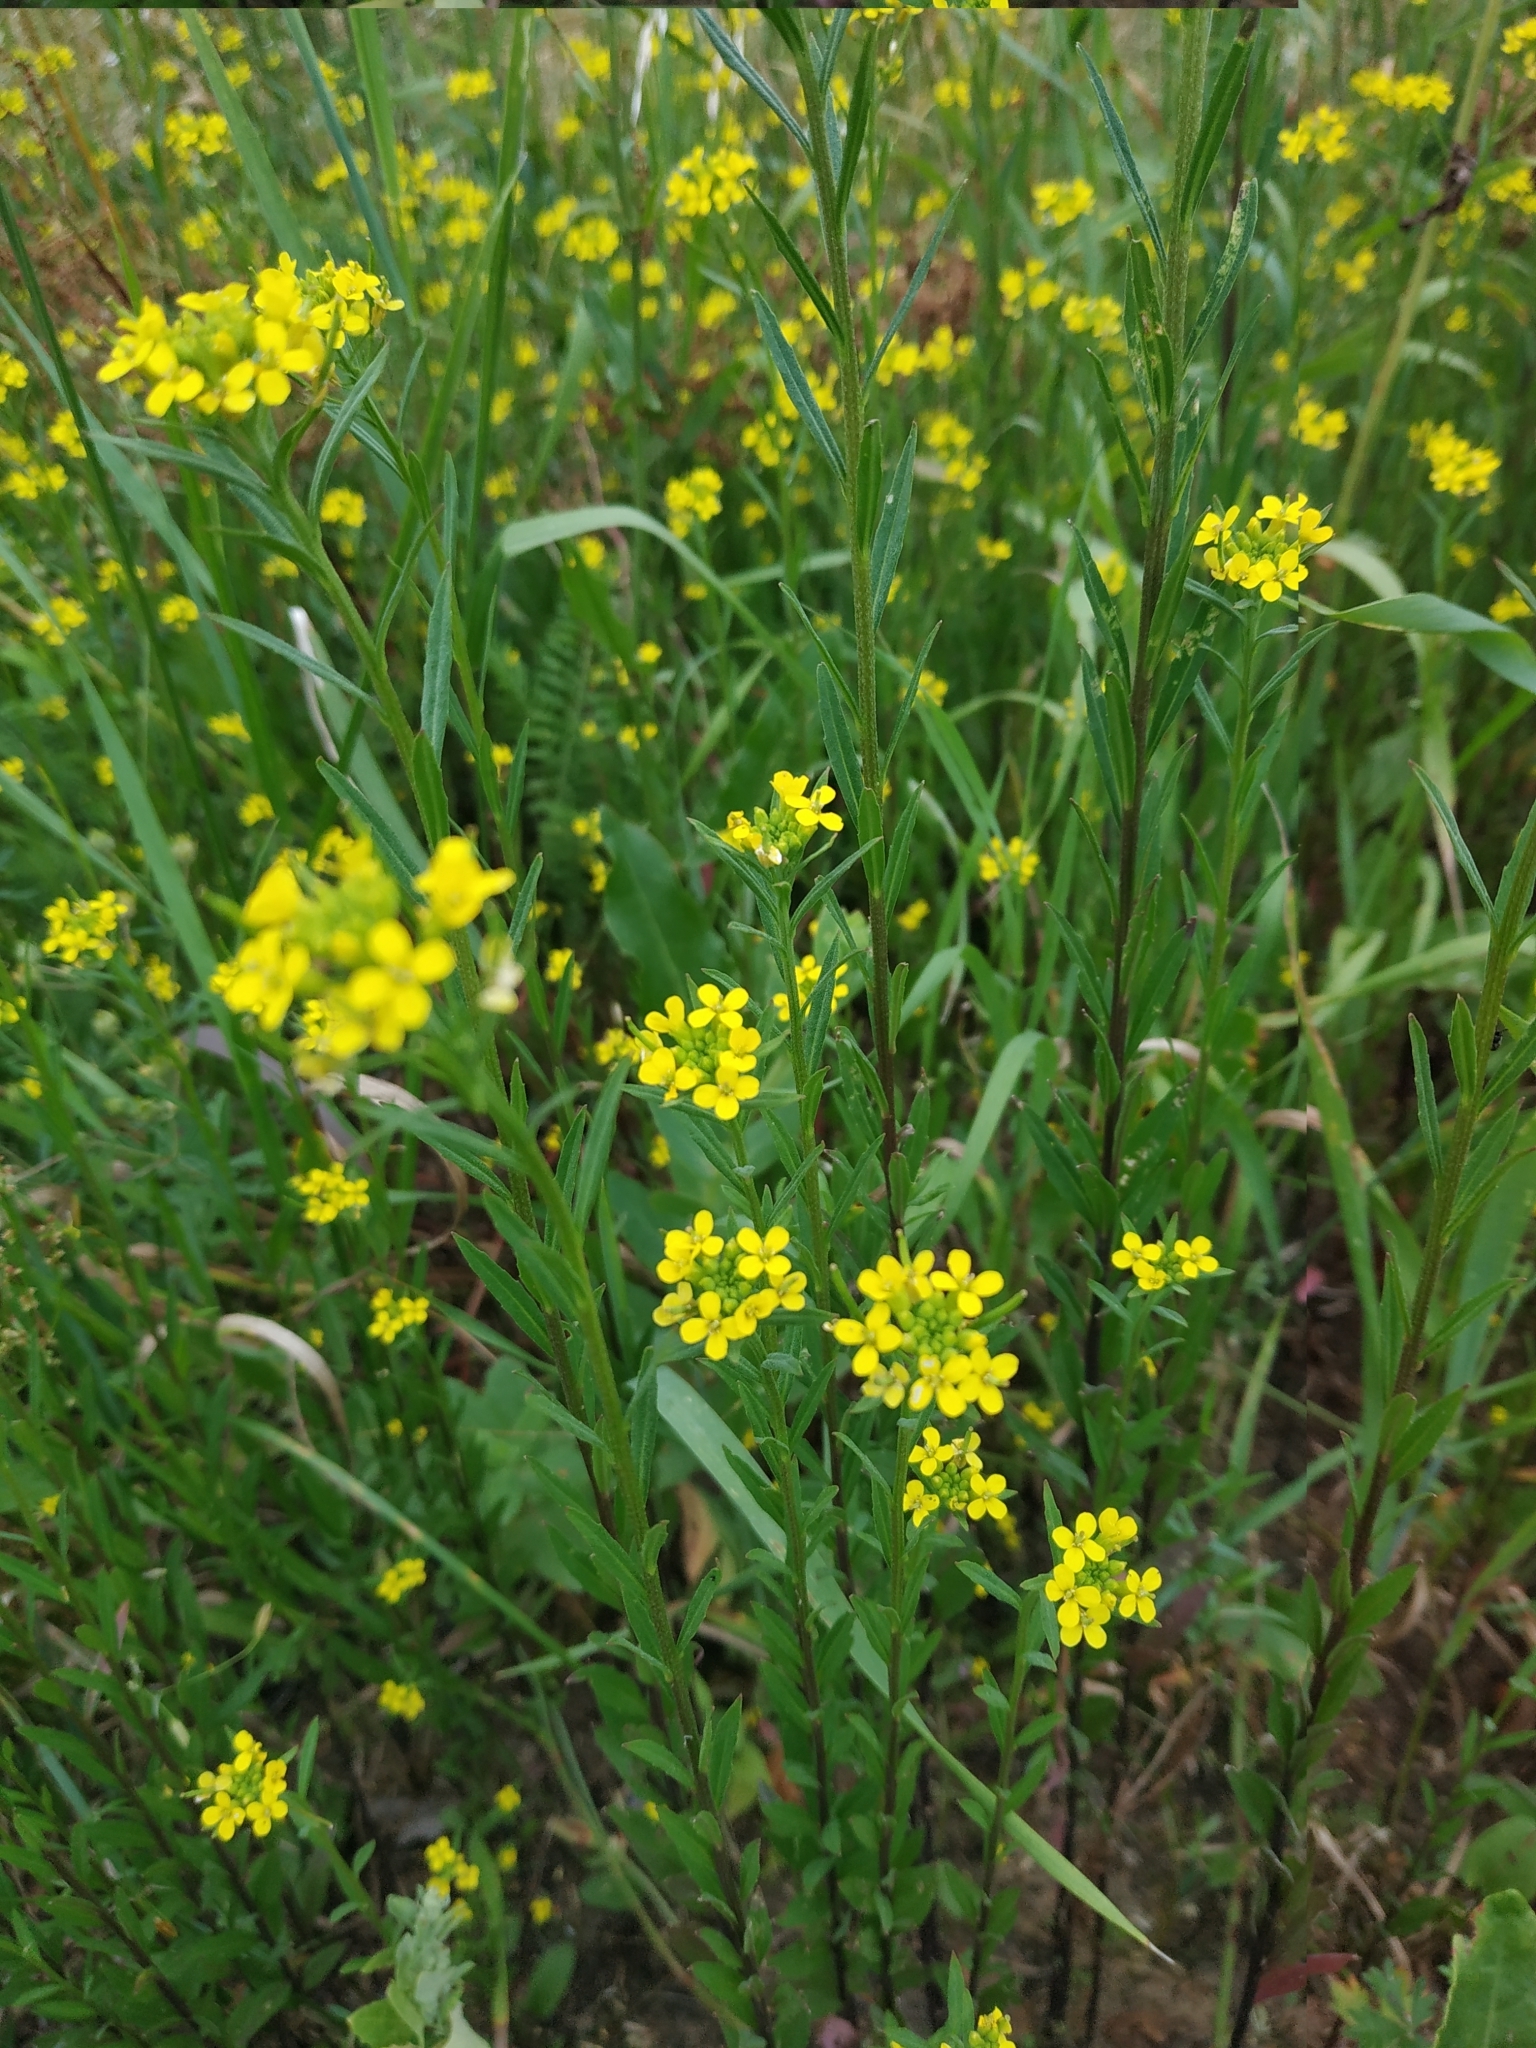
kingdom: Plantae
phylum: Tracheophyta
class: Magnoliopsida
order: Brassicales
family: Brassicaceae
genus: Erysimum
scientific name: Erysimum cheiranthoides
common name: Treacle mustard
